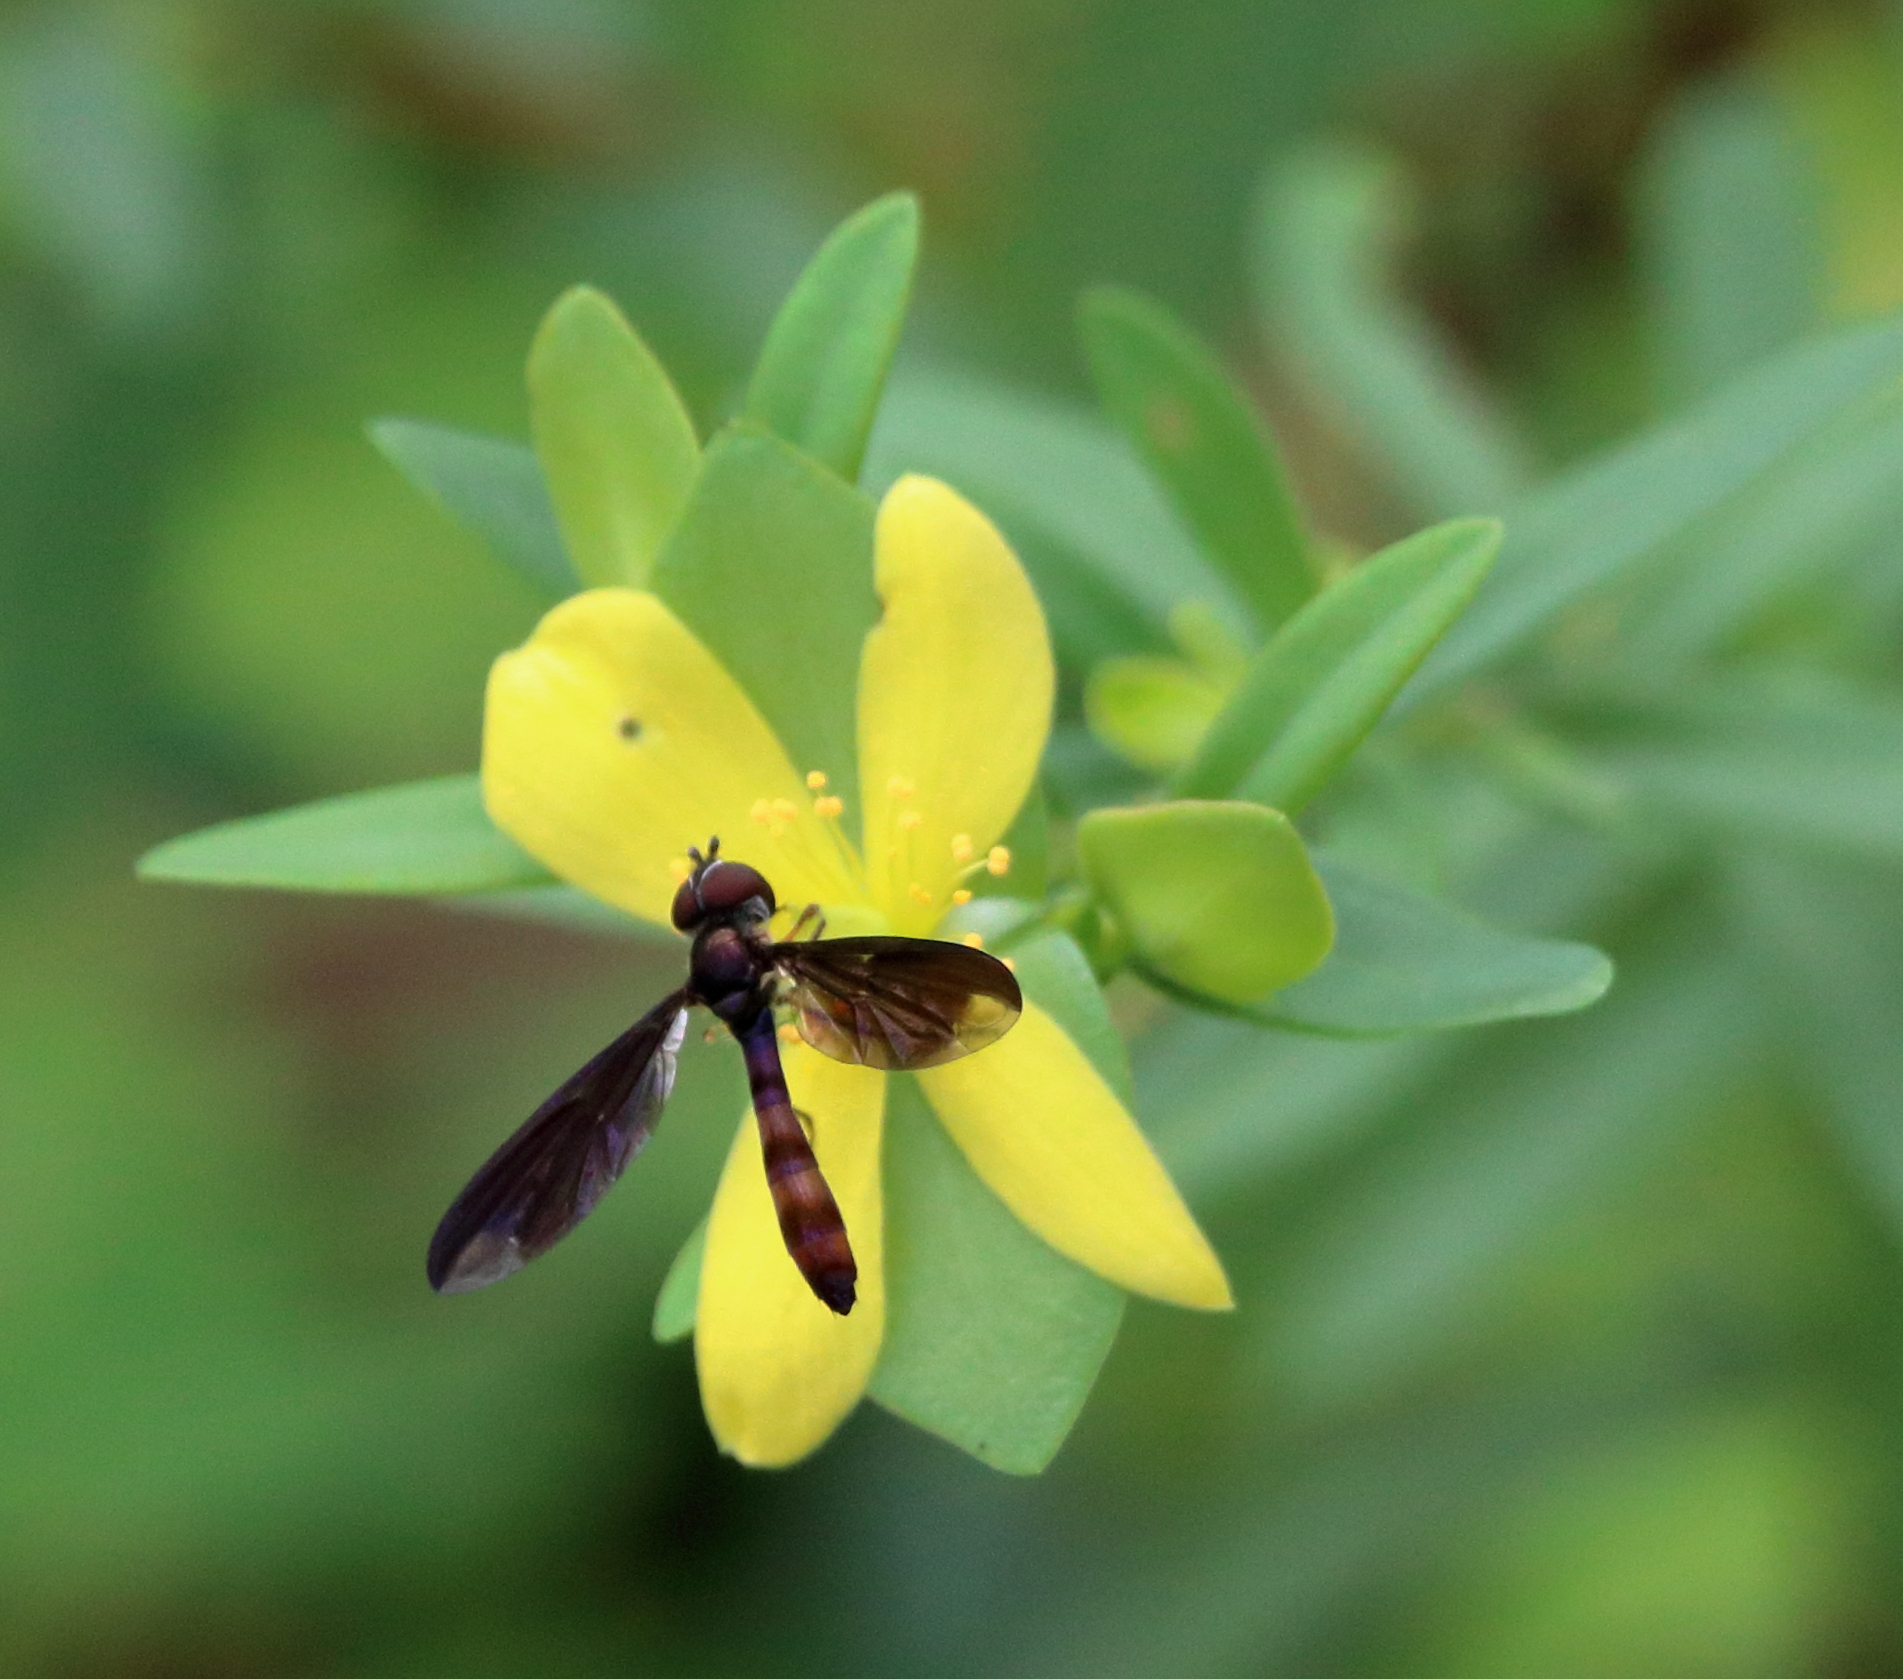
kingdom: Animalia
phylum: Arthropoda
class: Insecta
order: Diptera
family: Syrphidae
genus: Ocyptamus
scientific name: Ocyptamus fuscipennis
